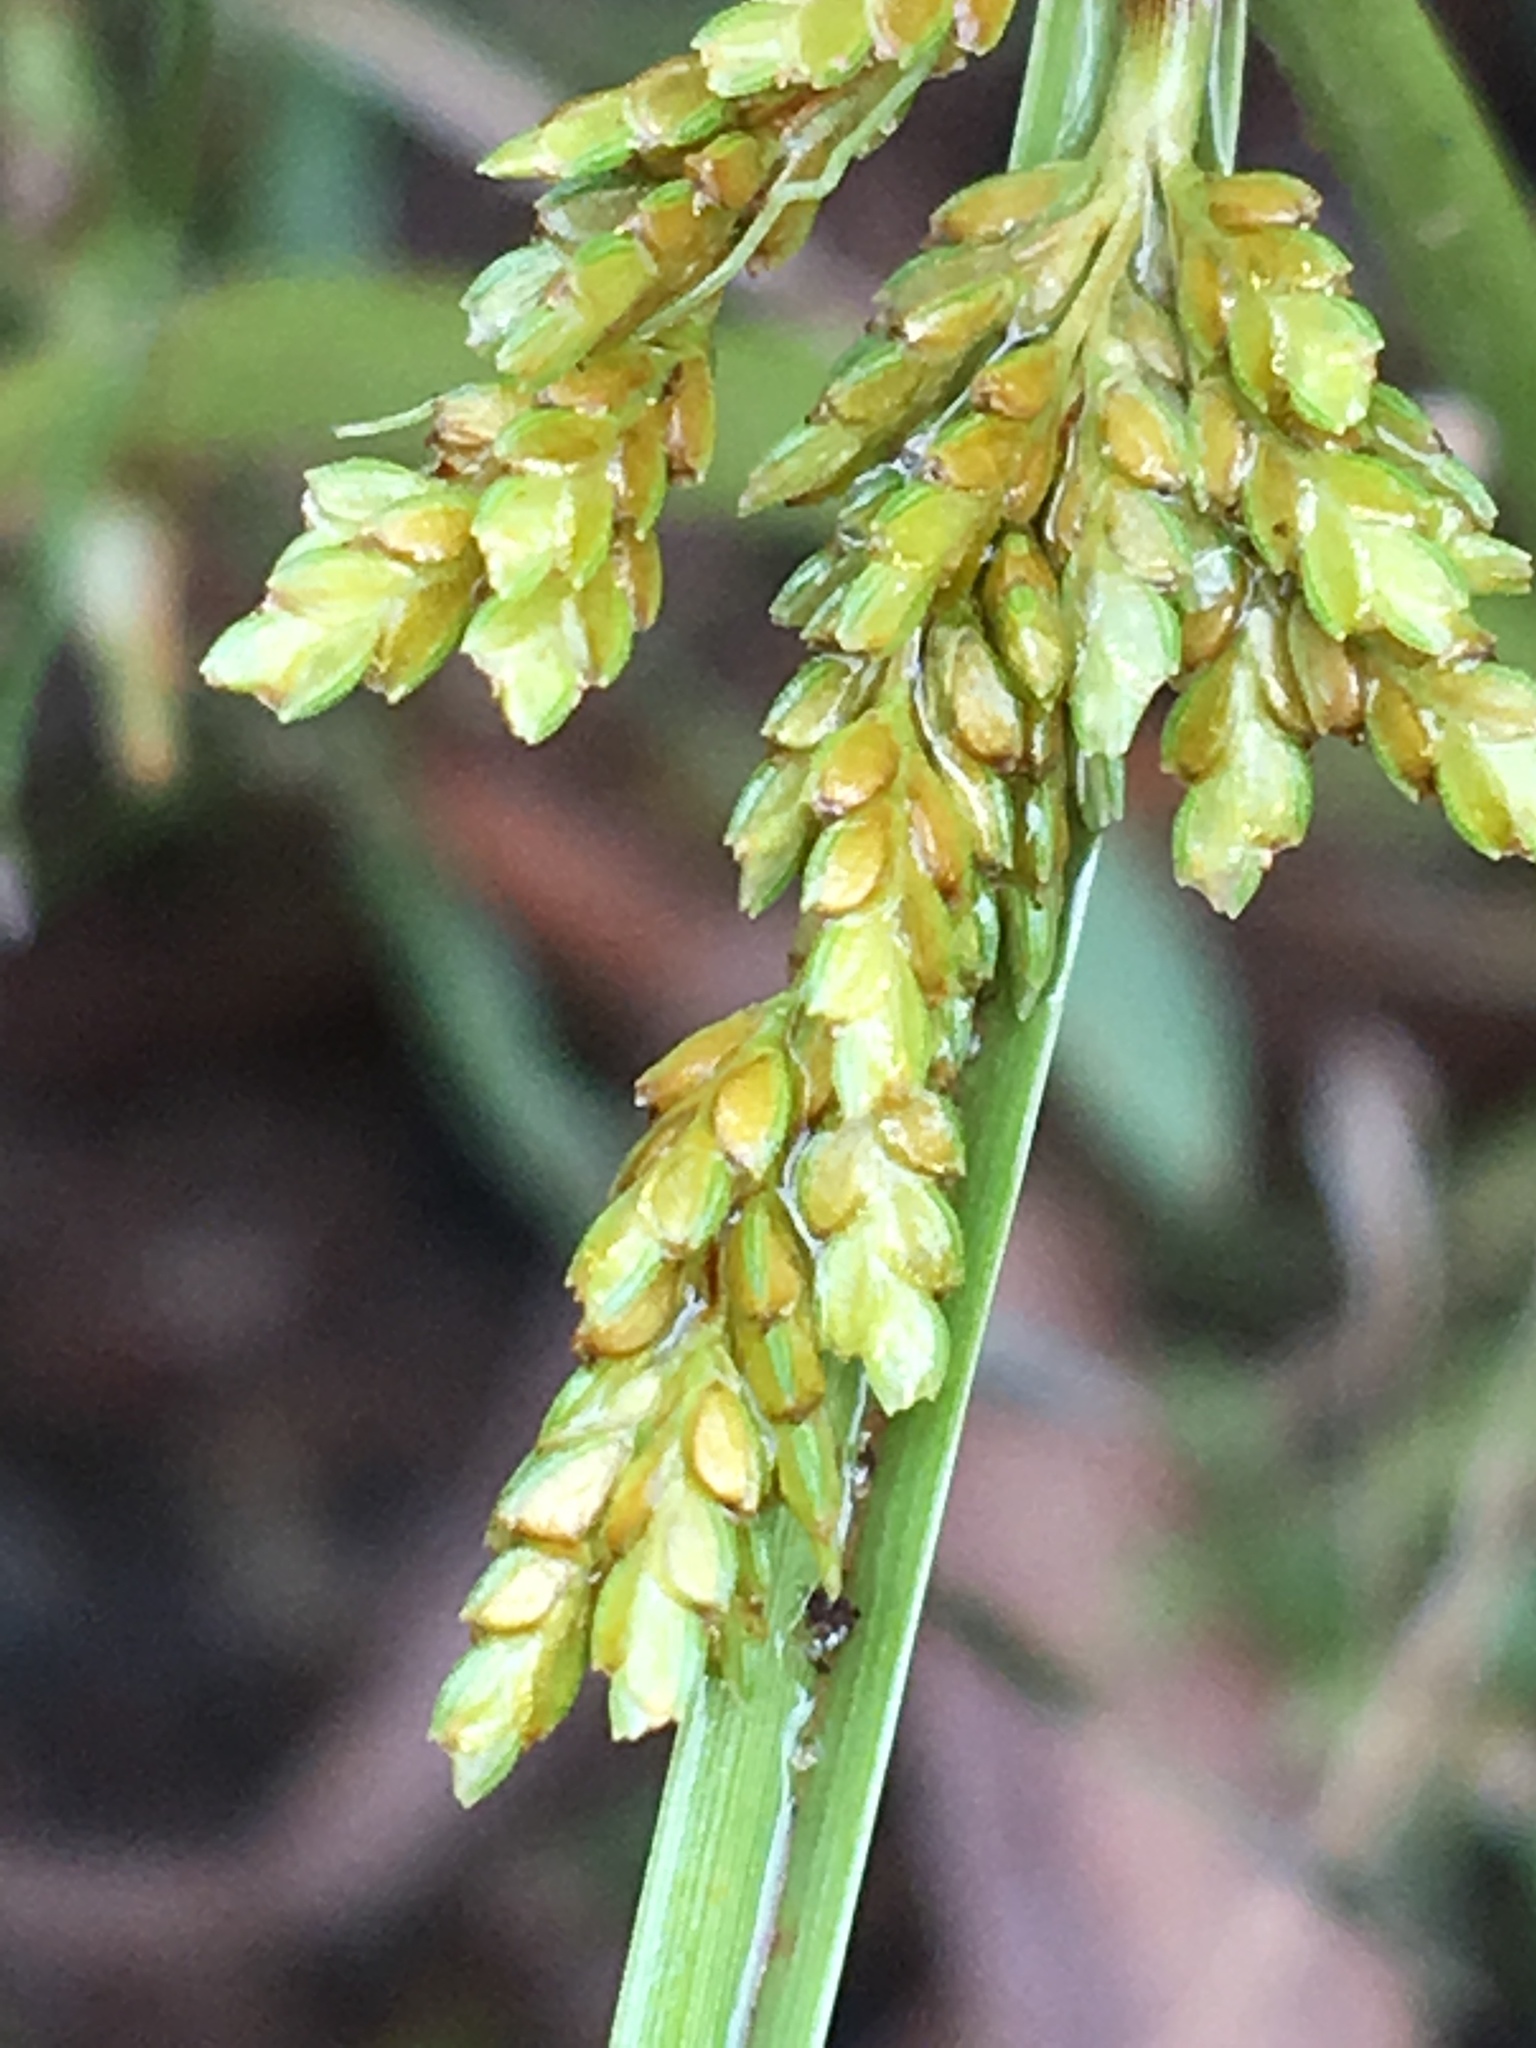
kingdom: Plantae
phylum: Tracheophyta
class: Liliopsida
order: Poales
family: Cyperaceae
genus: Cyperus
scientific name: Cyperus iria
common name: Ricefield flatsedge
